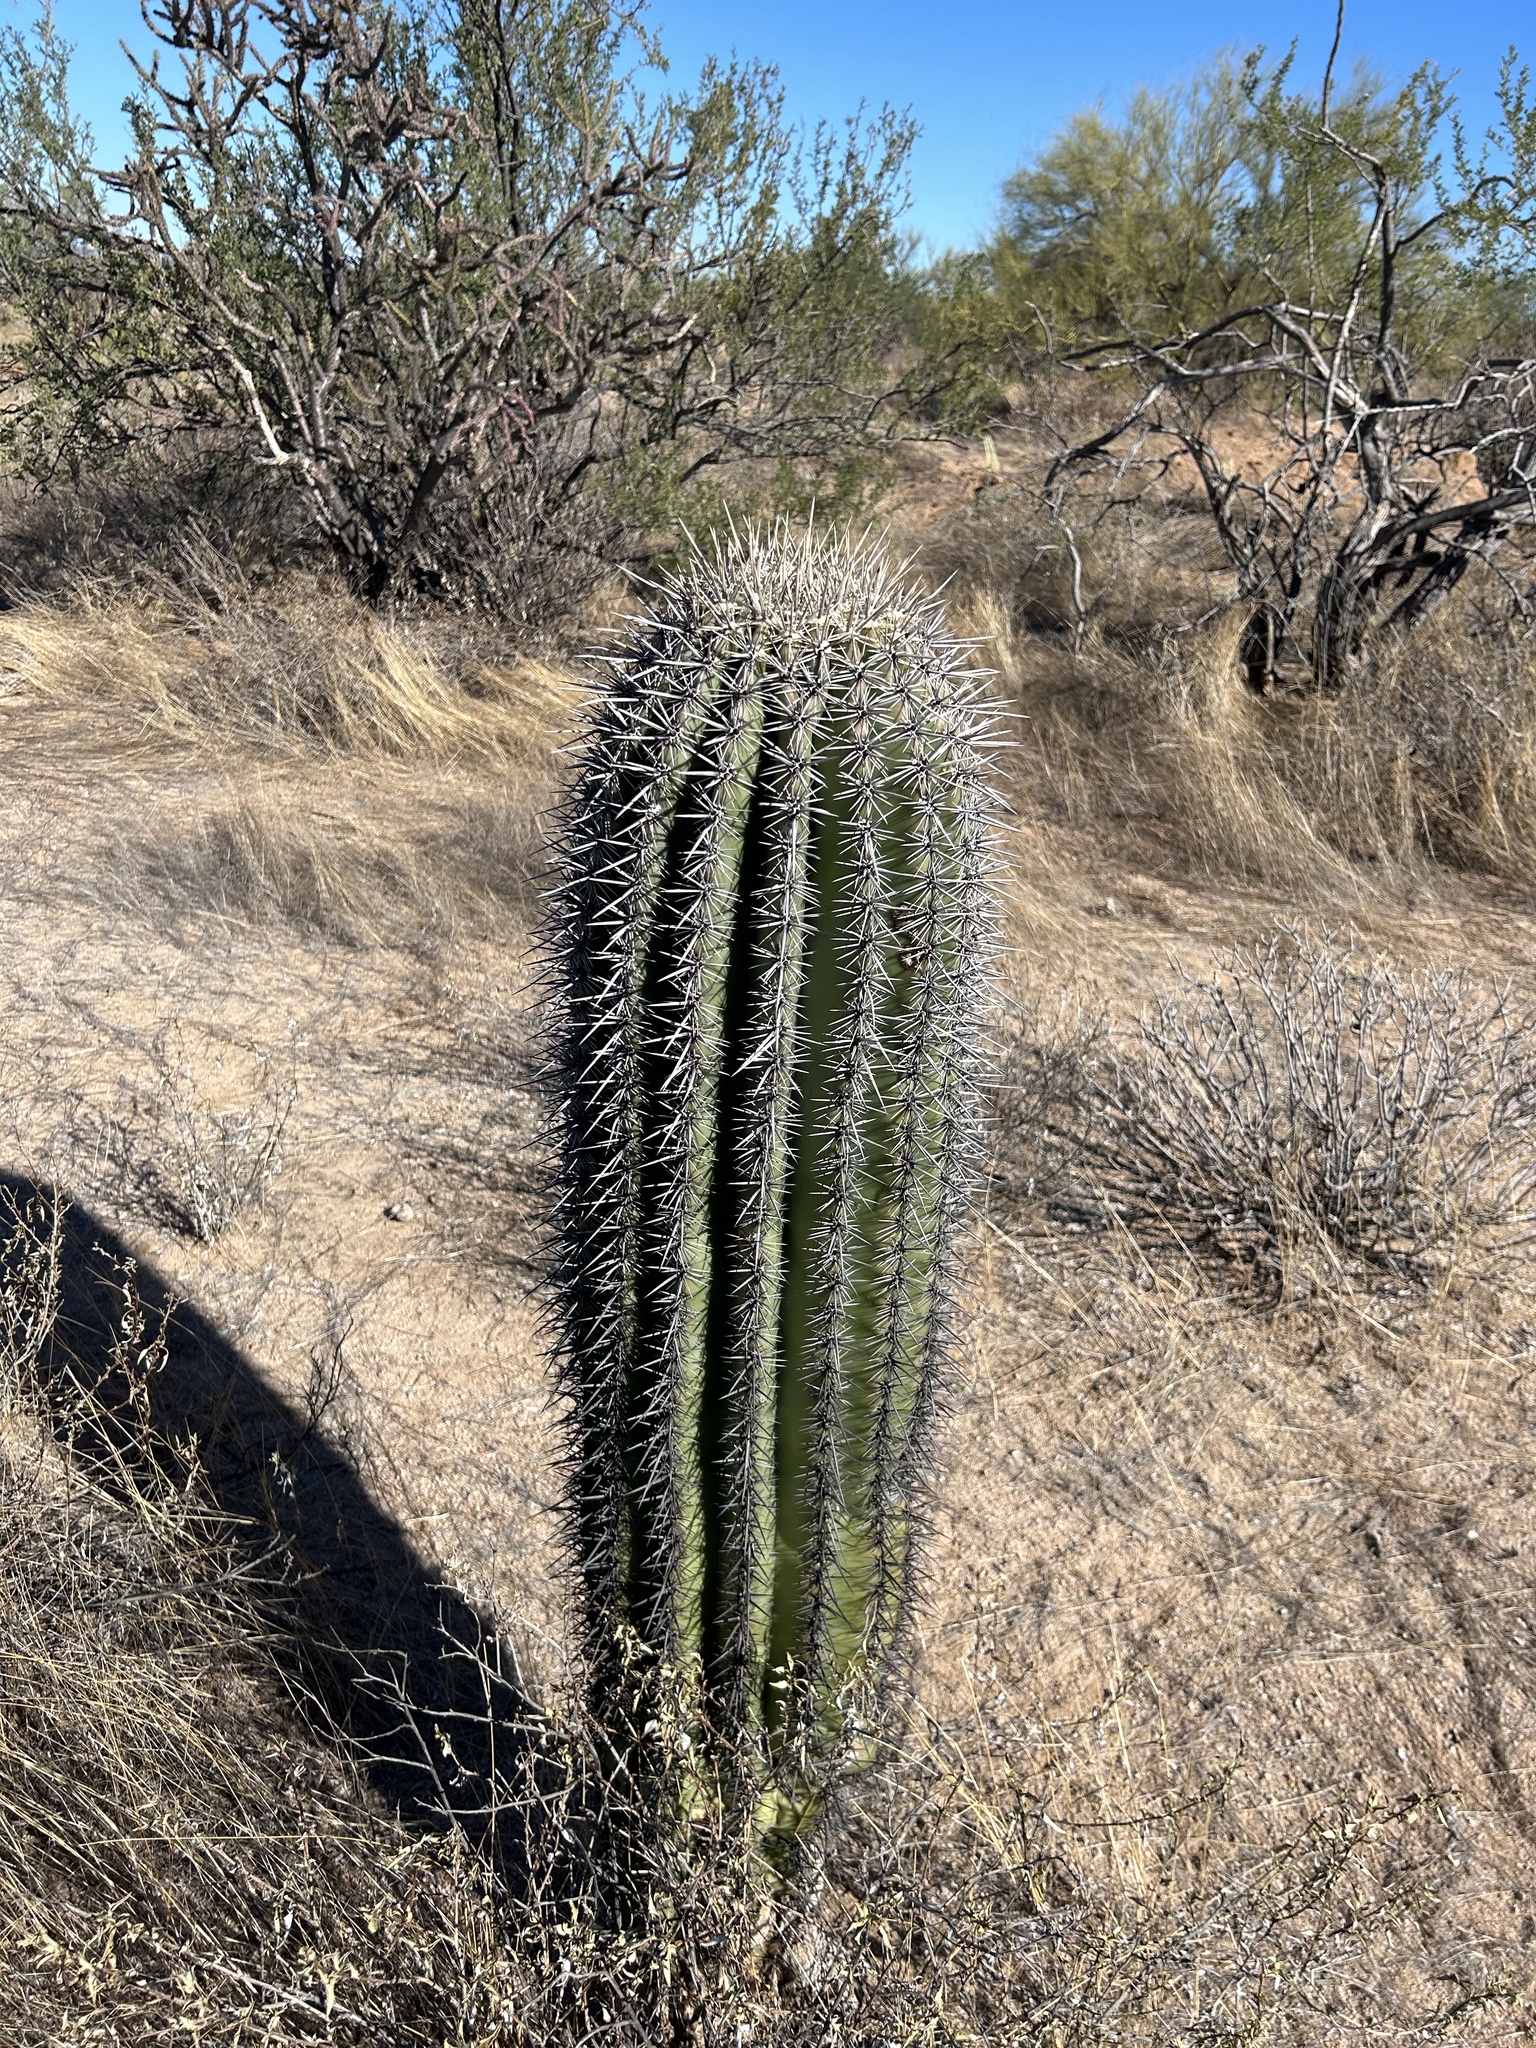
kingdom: Plantae
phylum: Tracheophyta
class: Magnoliopsida
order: Caryophyllales
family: Cactaceae
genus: Carnegiea
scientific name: Carnegiea gigantea
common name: Saguaro
